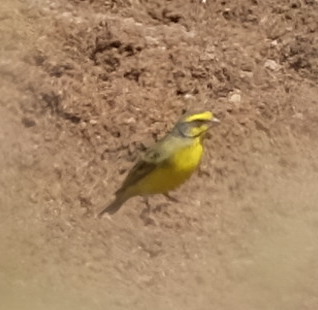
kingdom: Animalia
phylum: Chordata
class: Aves
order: Passeriformes
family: Fringillidae
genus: Crithagra
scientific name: Crithagra mozambica
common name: Yellow-fronted canary
